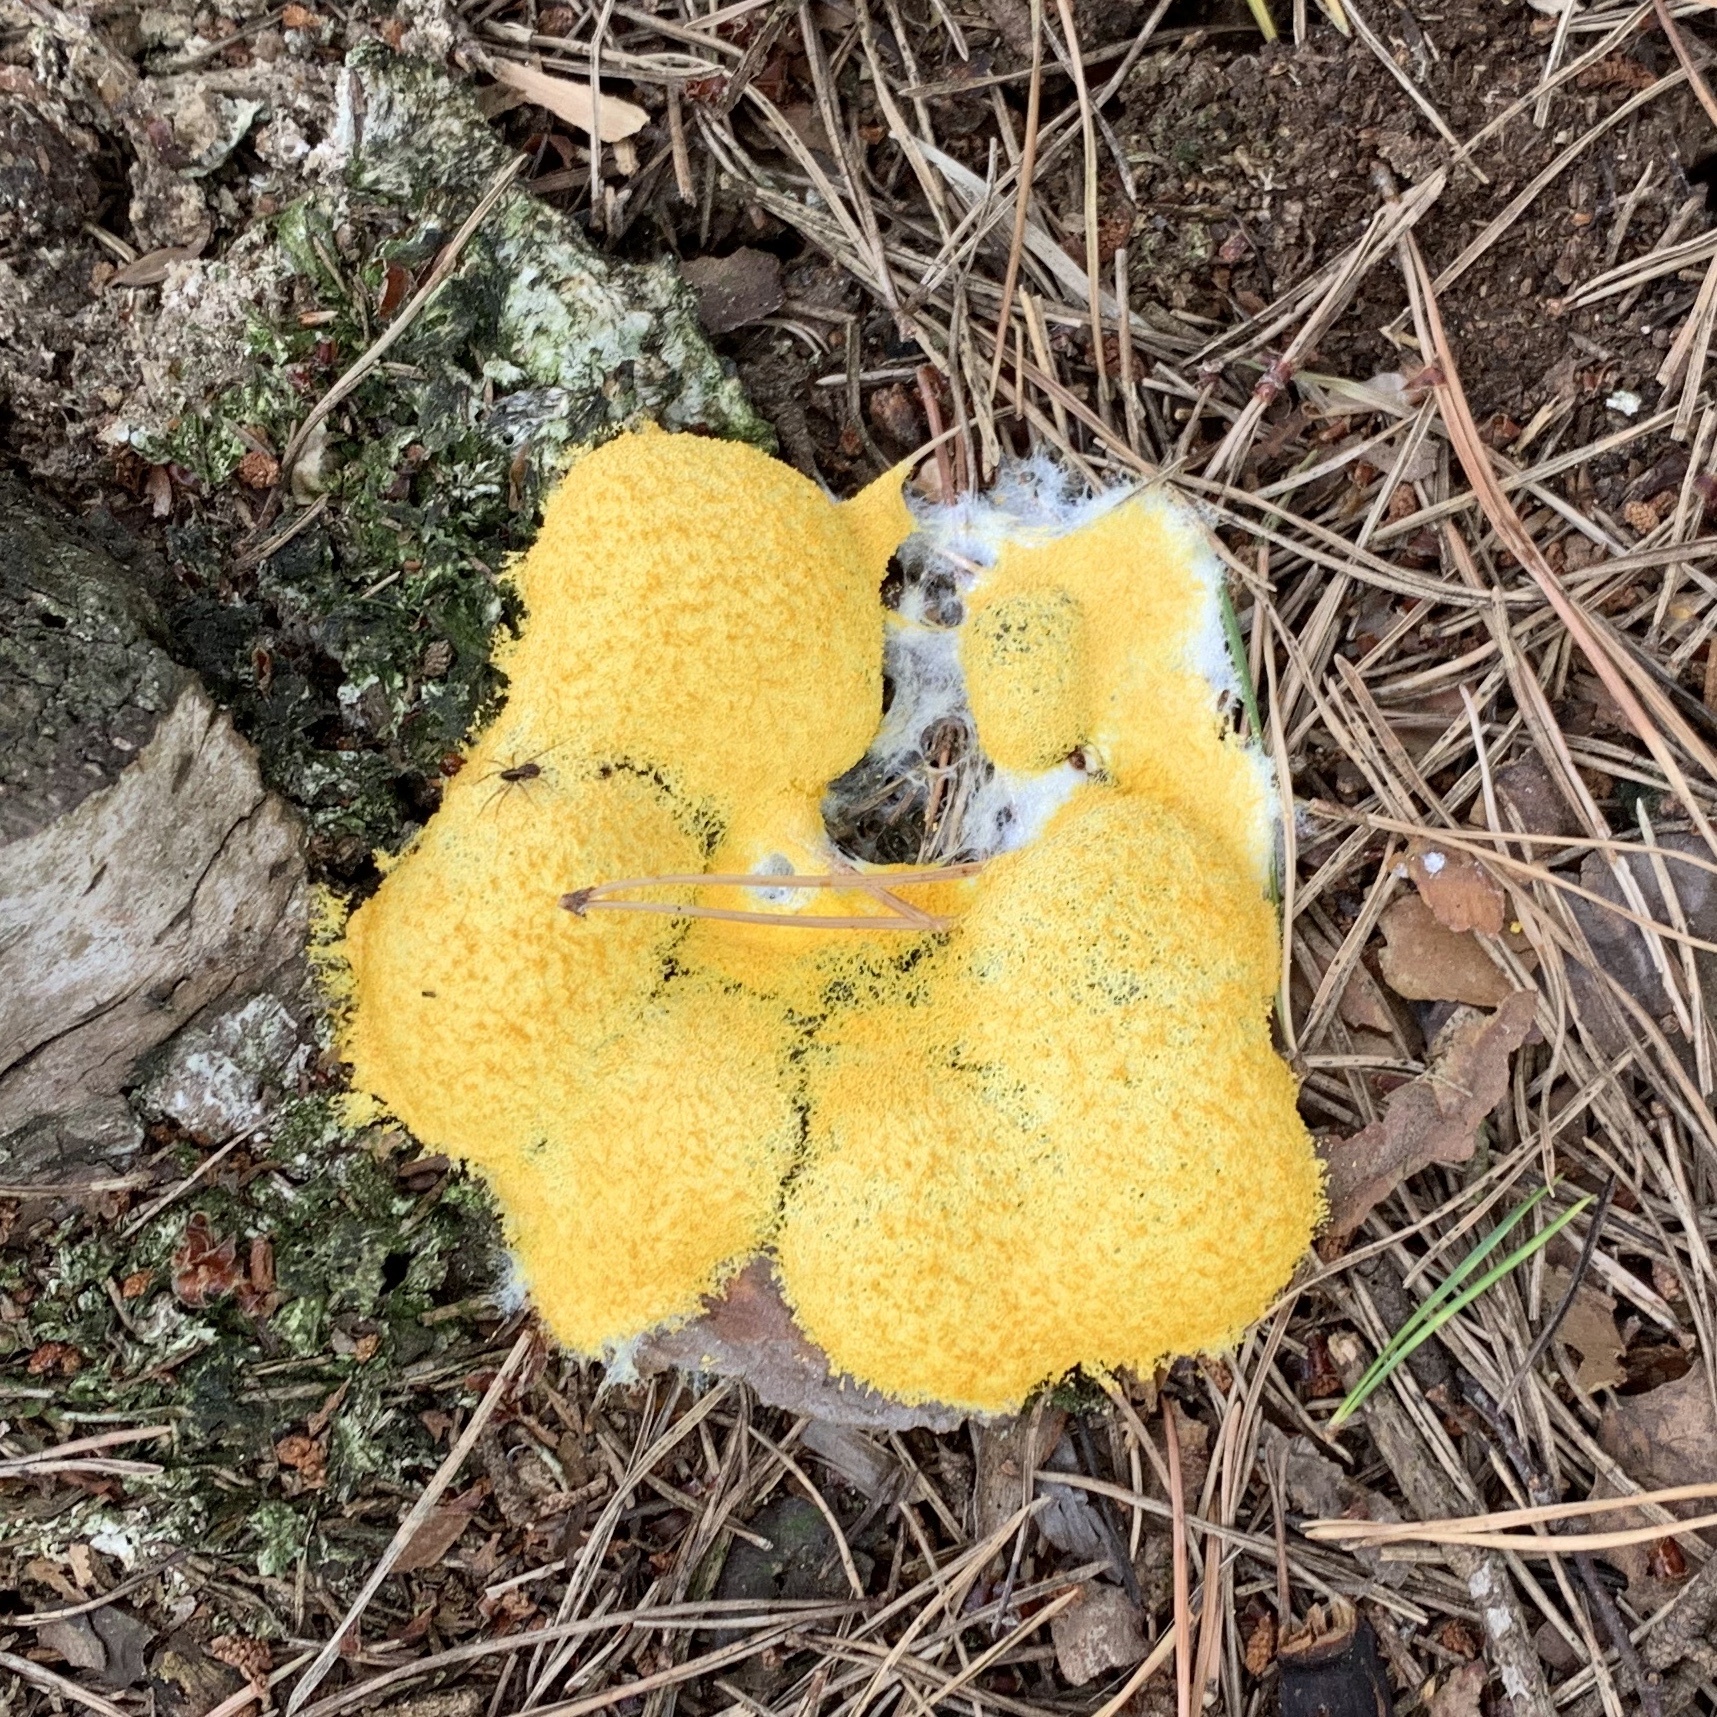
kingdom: Protozoa
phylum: Mycetozoa
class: Myxomycetes
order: Physarales
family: Physaraceae
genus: Fuligo
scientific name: Fuligo septica
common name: Dog vomit slime mold
